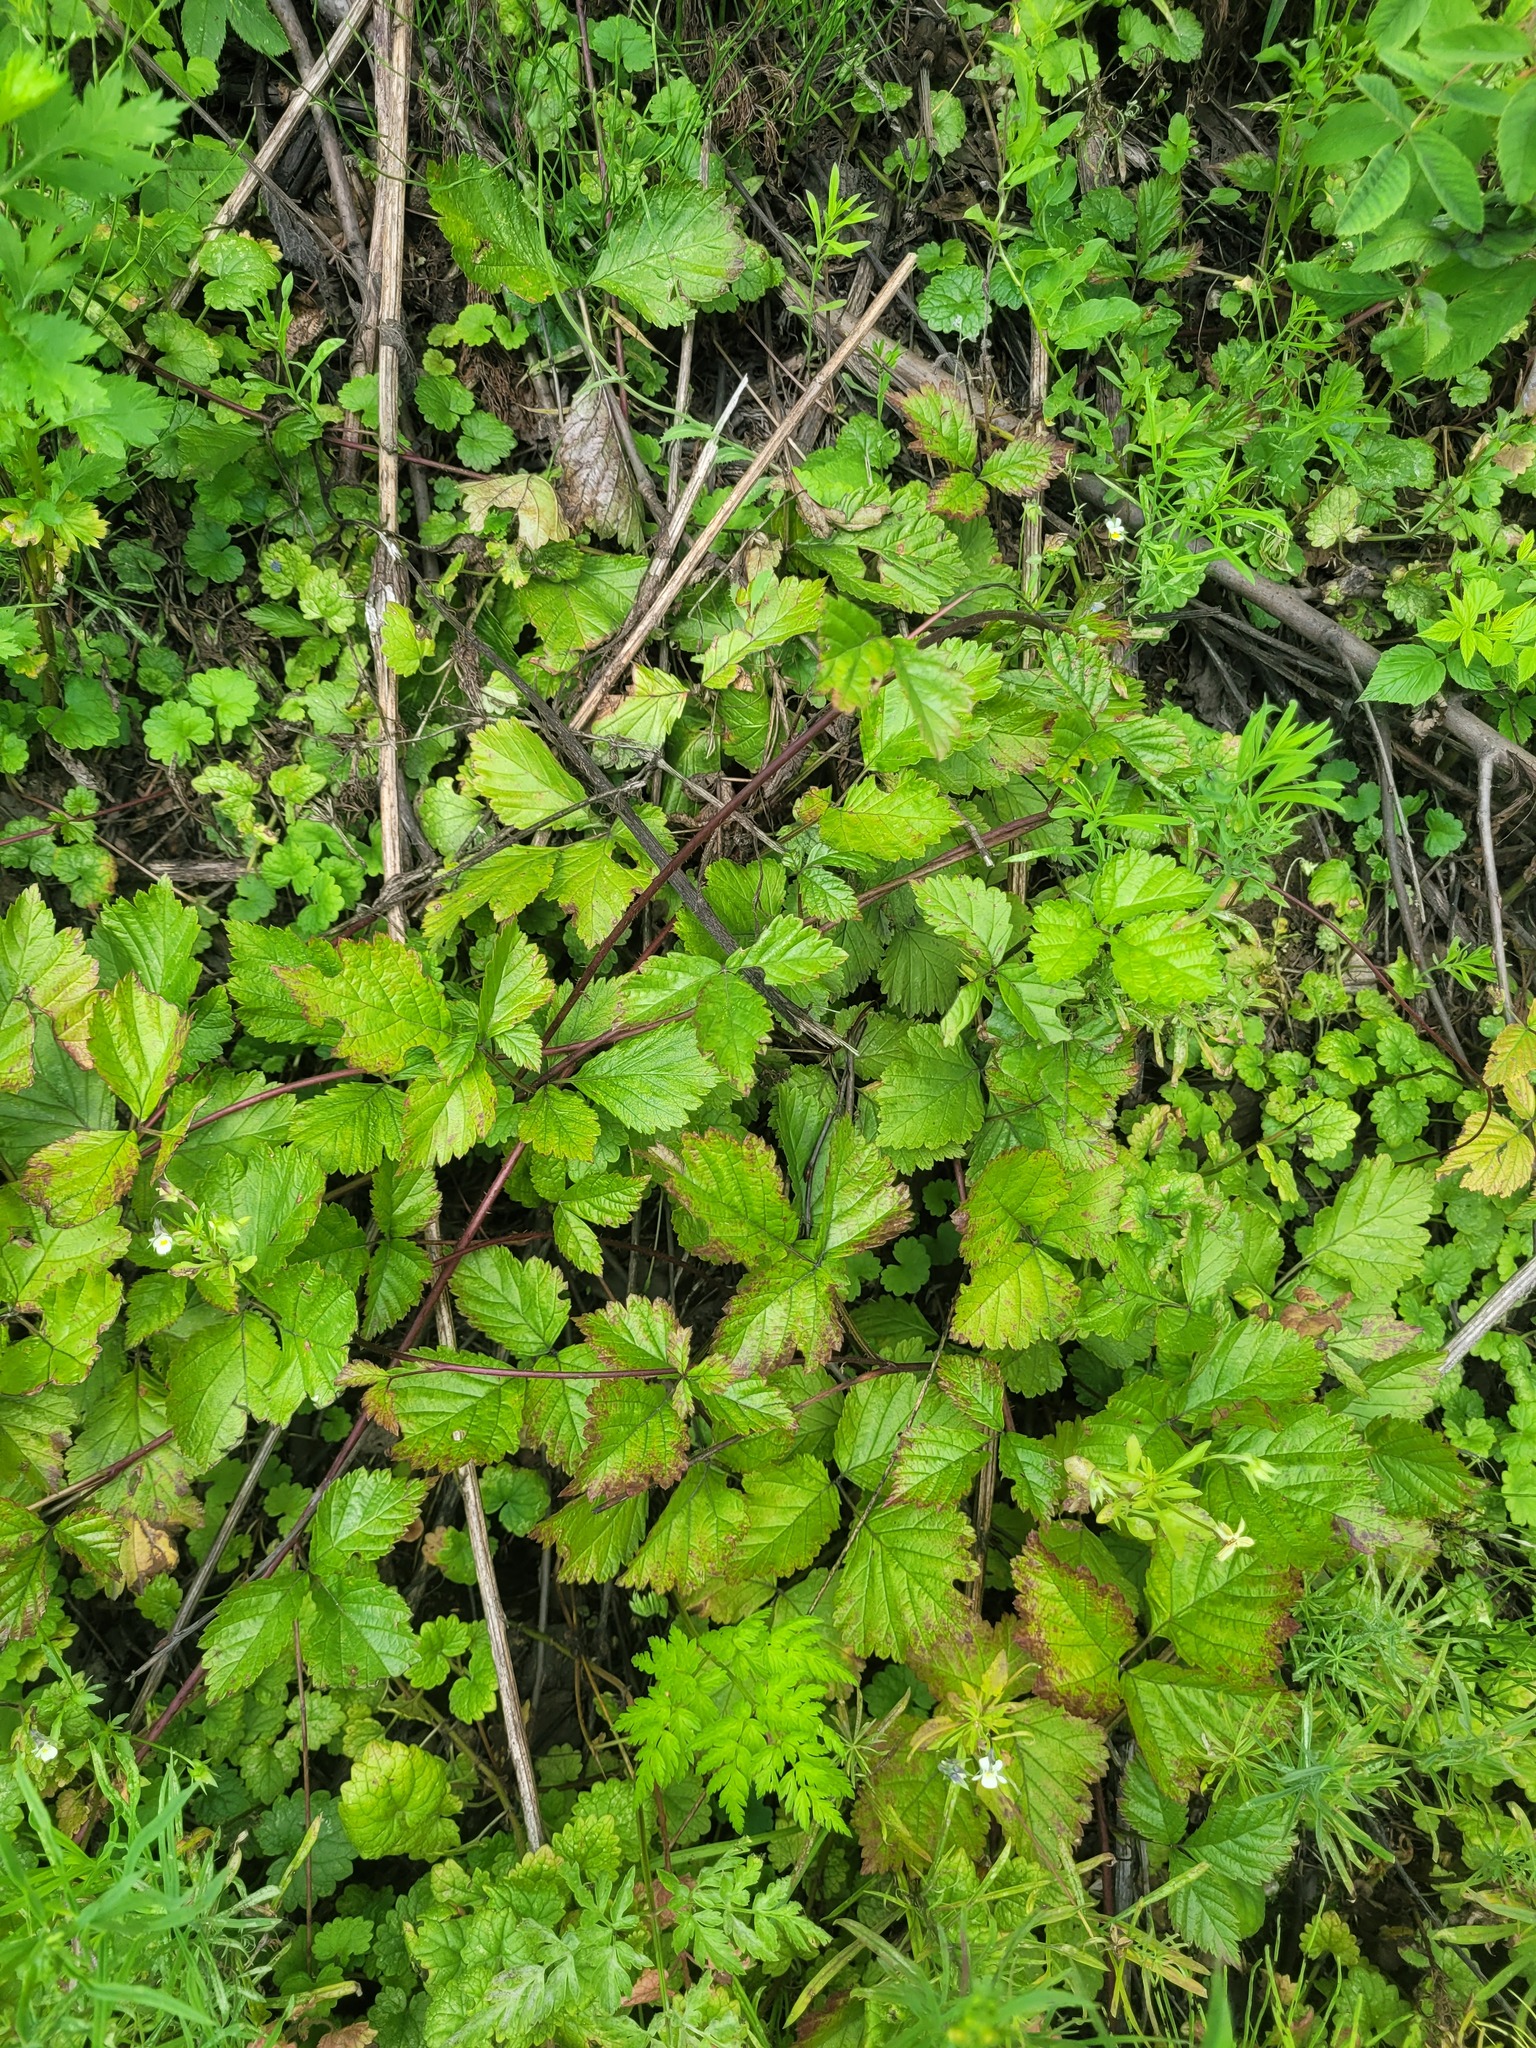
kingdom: Plantae
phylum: Tracheophyta
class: Magnoliopsida
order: Rosales
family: Rosaceae
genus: Rubus
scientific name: Rubus saxatilis
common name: Stone bramble
